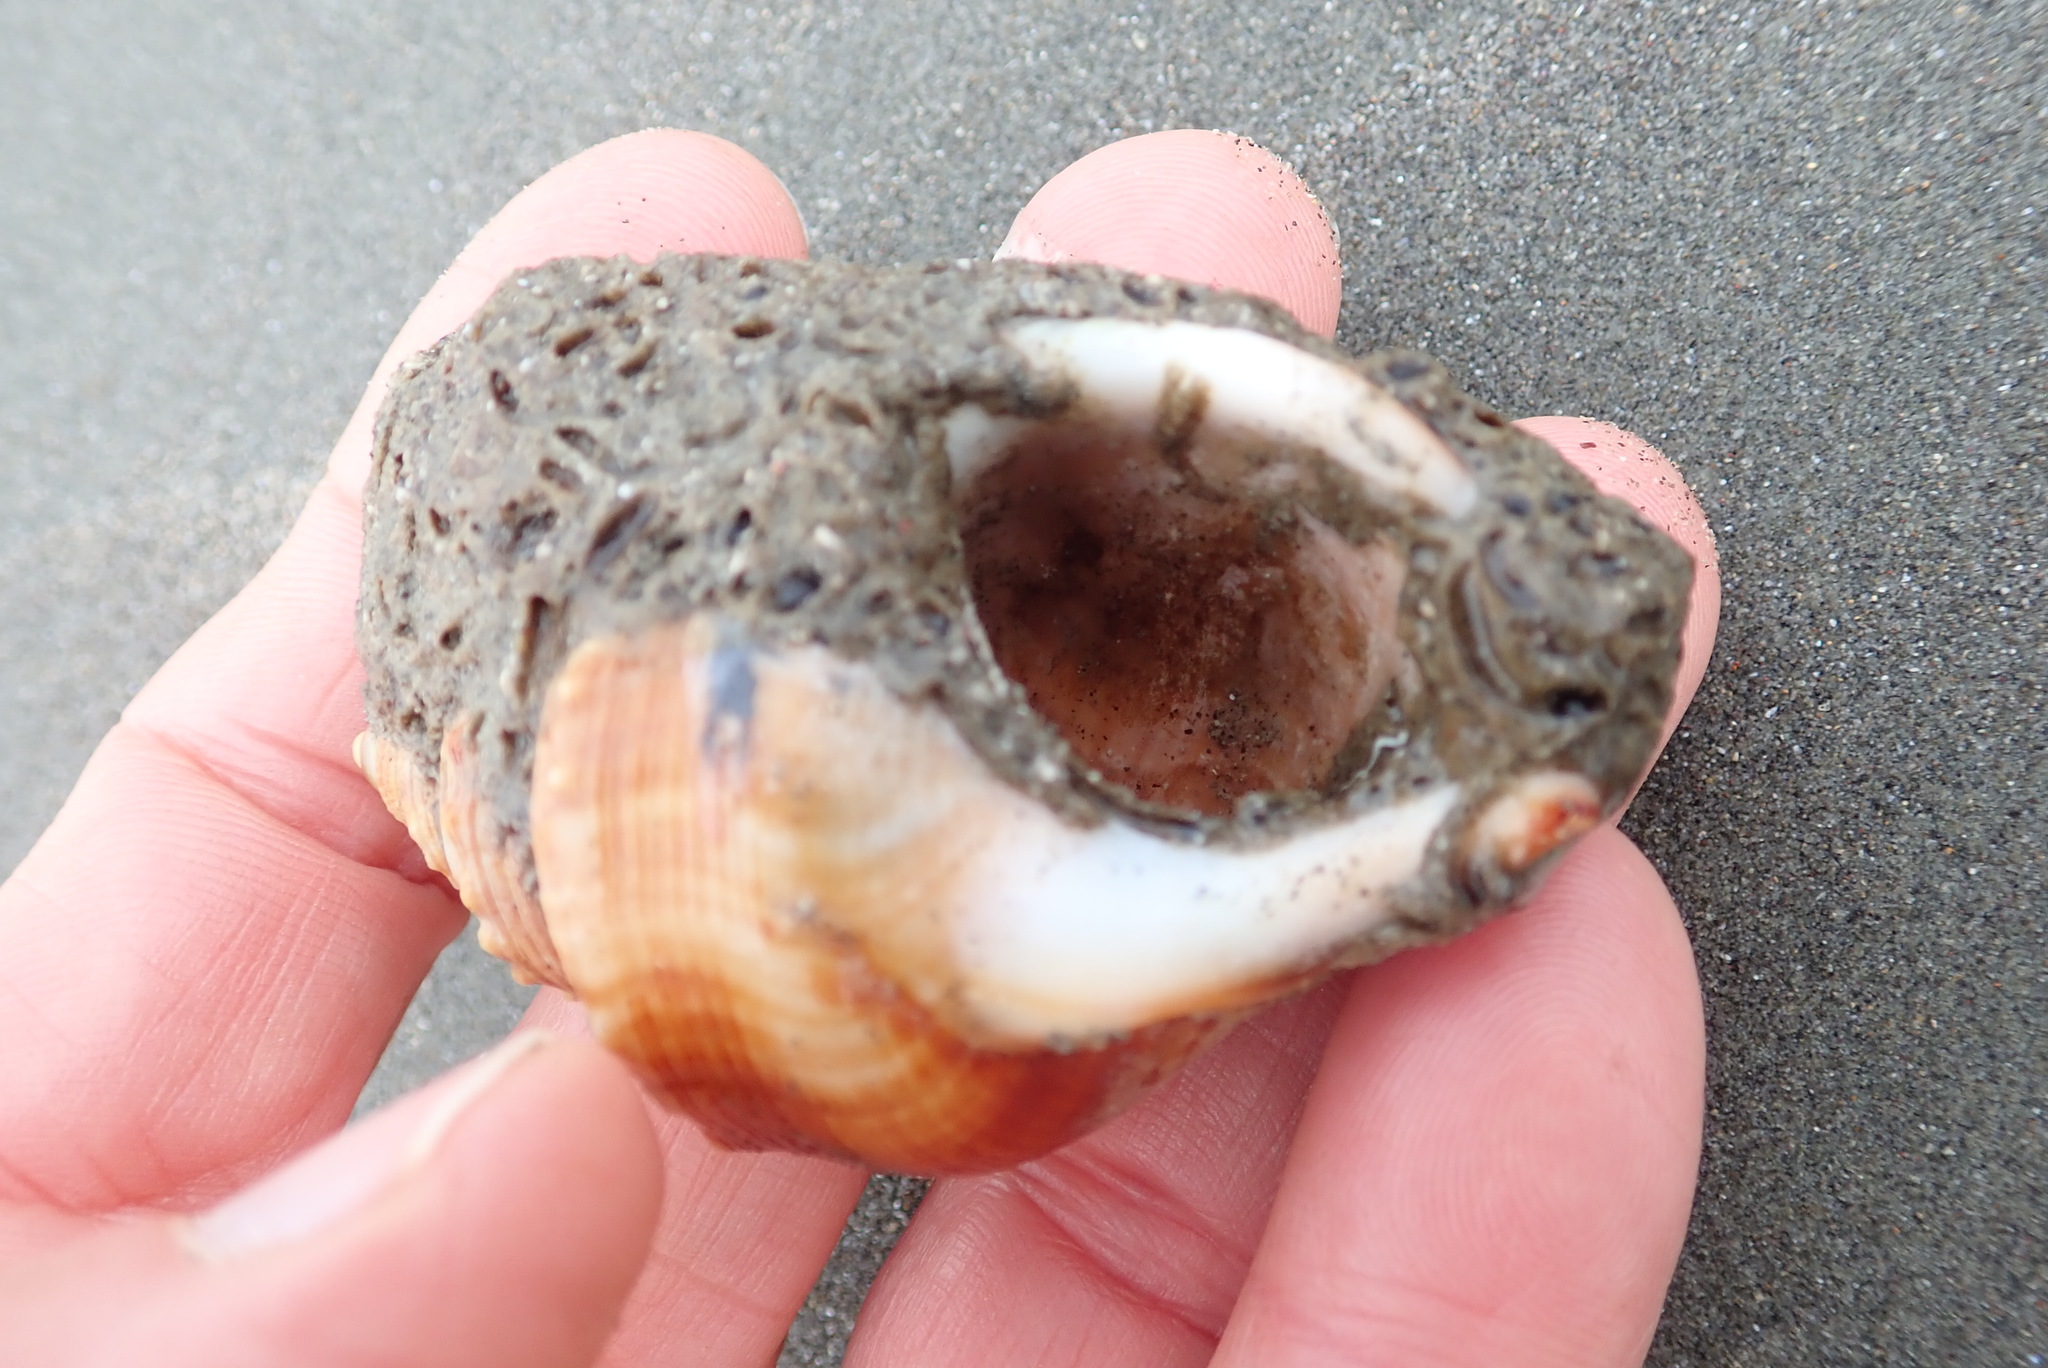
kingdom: Animalia
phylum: Mollusca
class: Gastropoda
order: Littorinimorpha
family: Struthiolariidae
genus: Struthiolaria
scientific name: Struthiolaria papulosa
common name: Large ostrich foot
